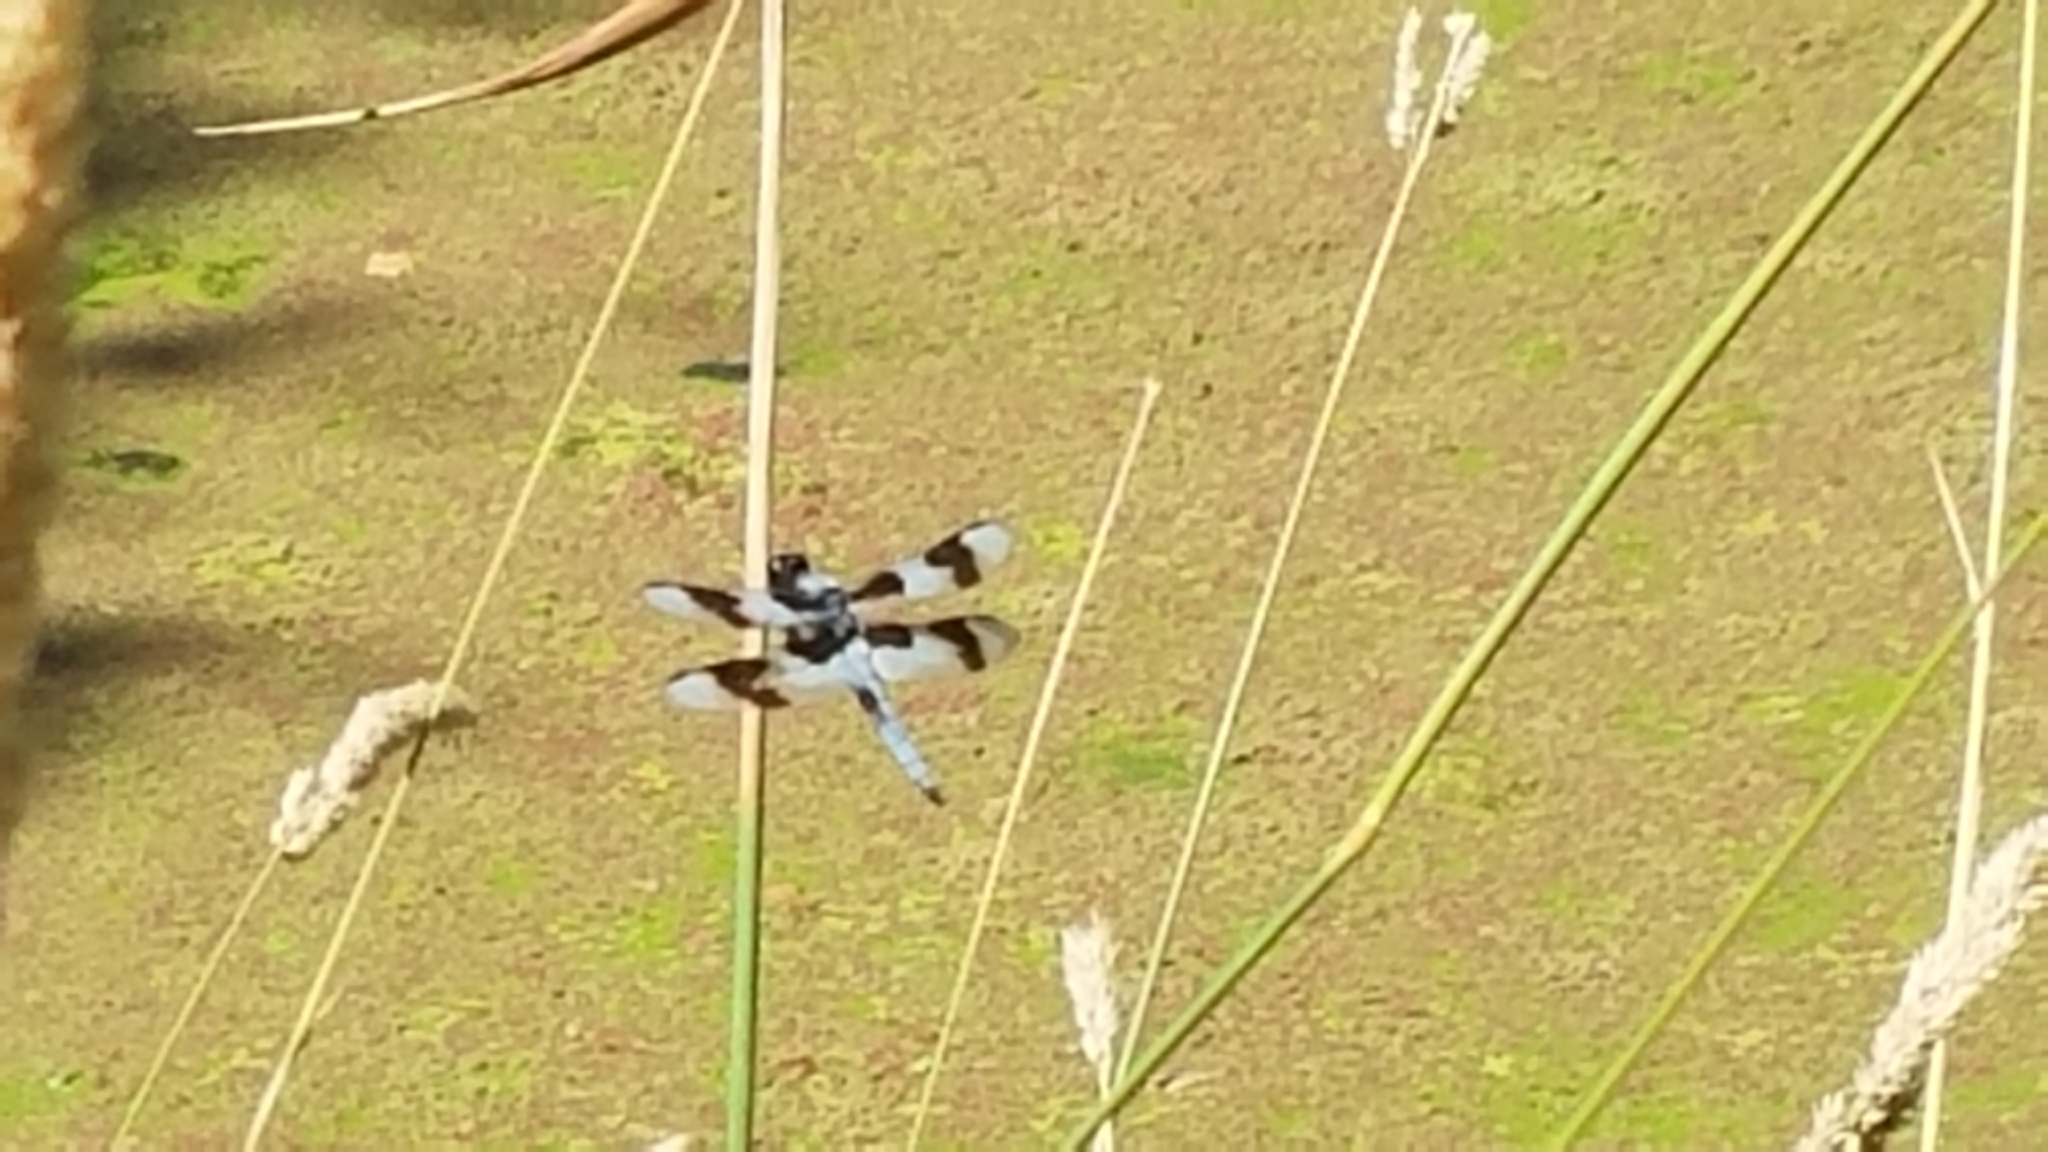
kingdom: Animalia
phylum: Arthropoda
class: Insecta
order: Odonata
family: Libellulidae
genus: Libellula
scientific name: Libellula forensis
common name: Eight-spotted skimmer
